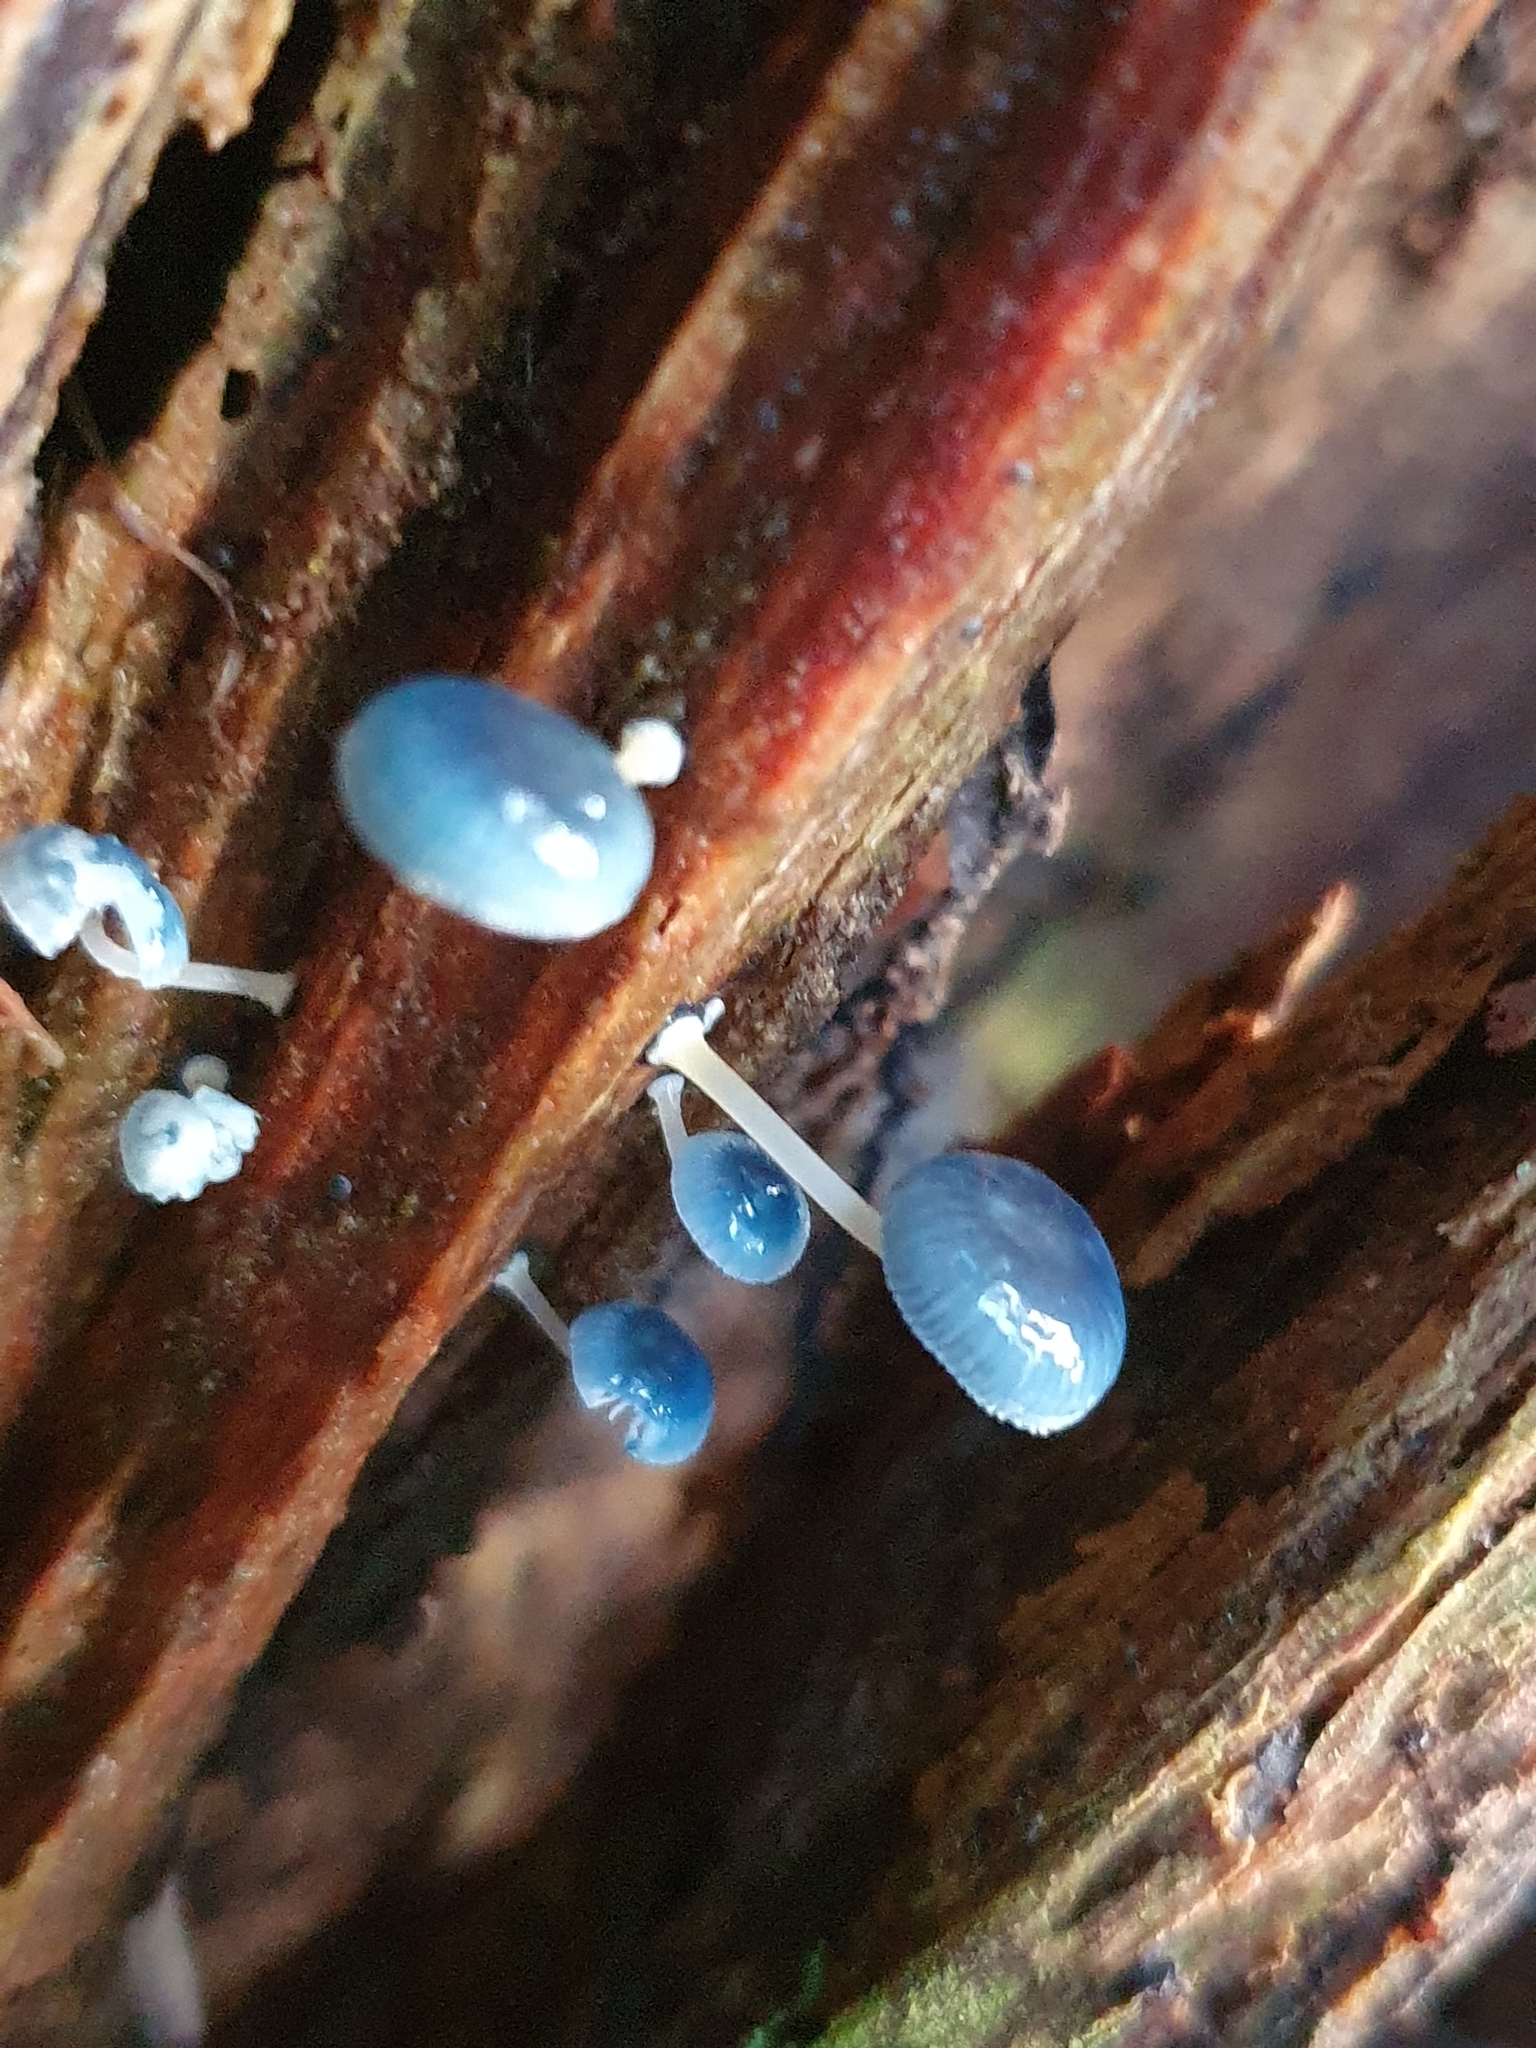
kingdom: Fungi
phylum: Basidiomycota
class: Agaricomycetes
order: Agaricales
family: Mycenaceae
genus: Mycena
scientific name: Mycena interrupta
